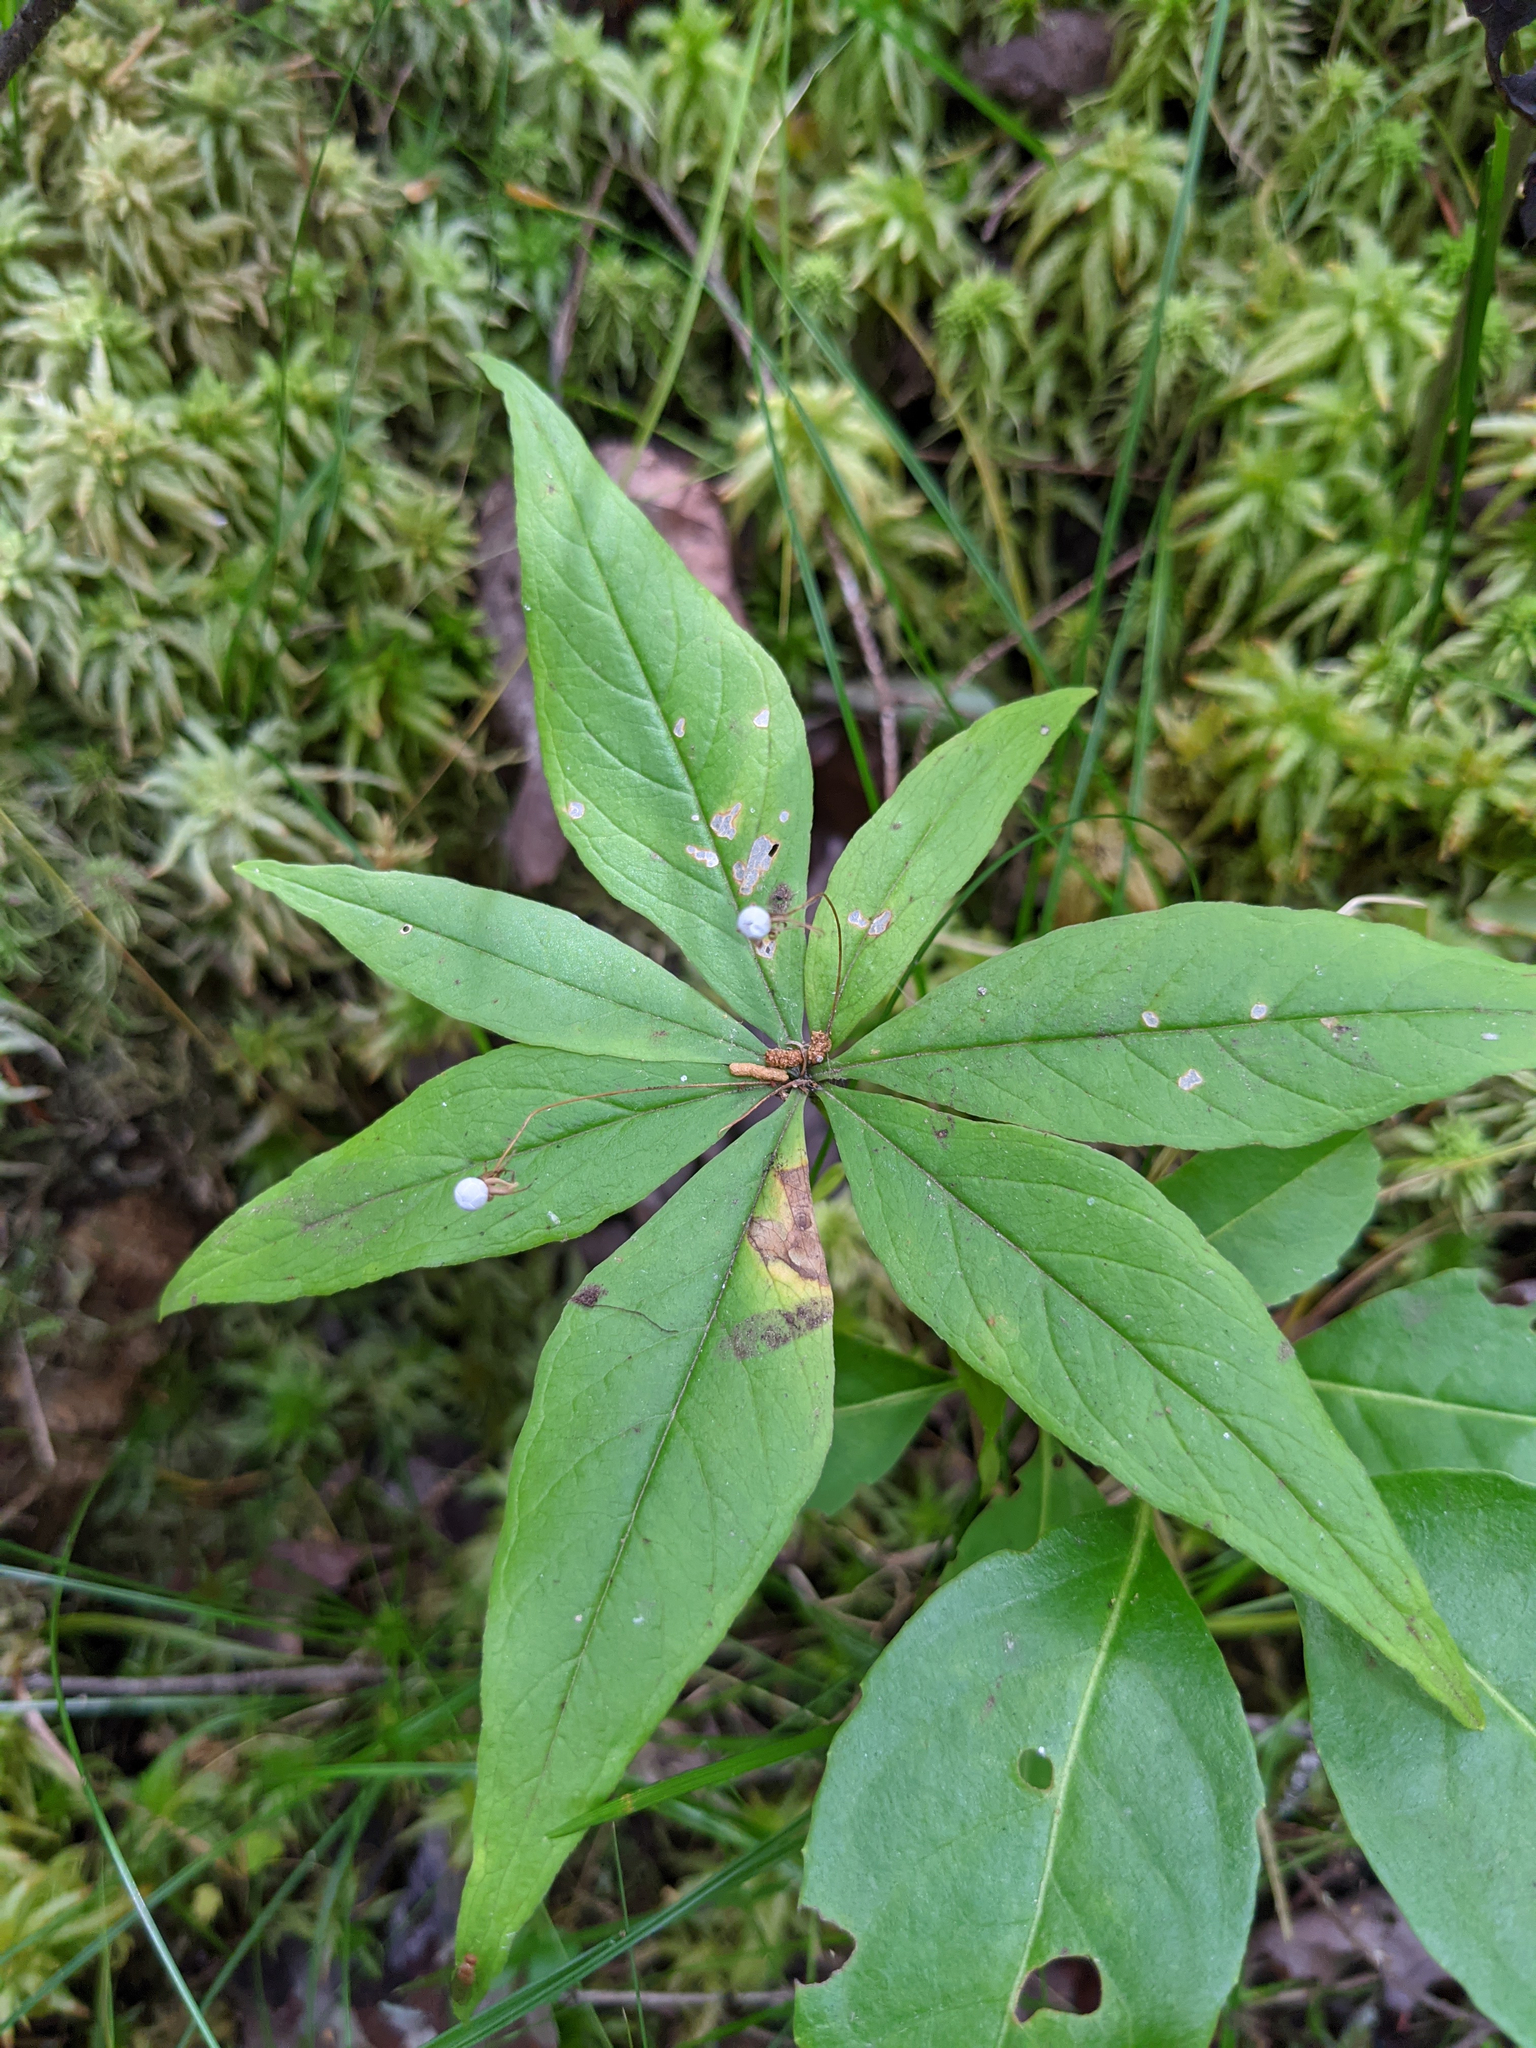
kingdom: Plantae
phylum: Tracheophyta
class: Magnoliopsida
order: Ericales
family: Primulaceae
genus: Lysimachia
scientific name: Lysimachia borealis
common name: American starflower
